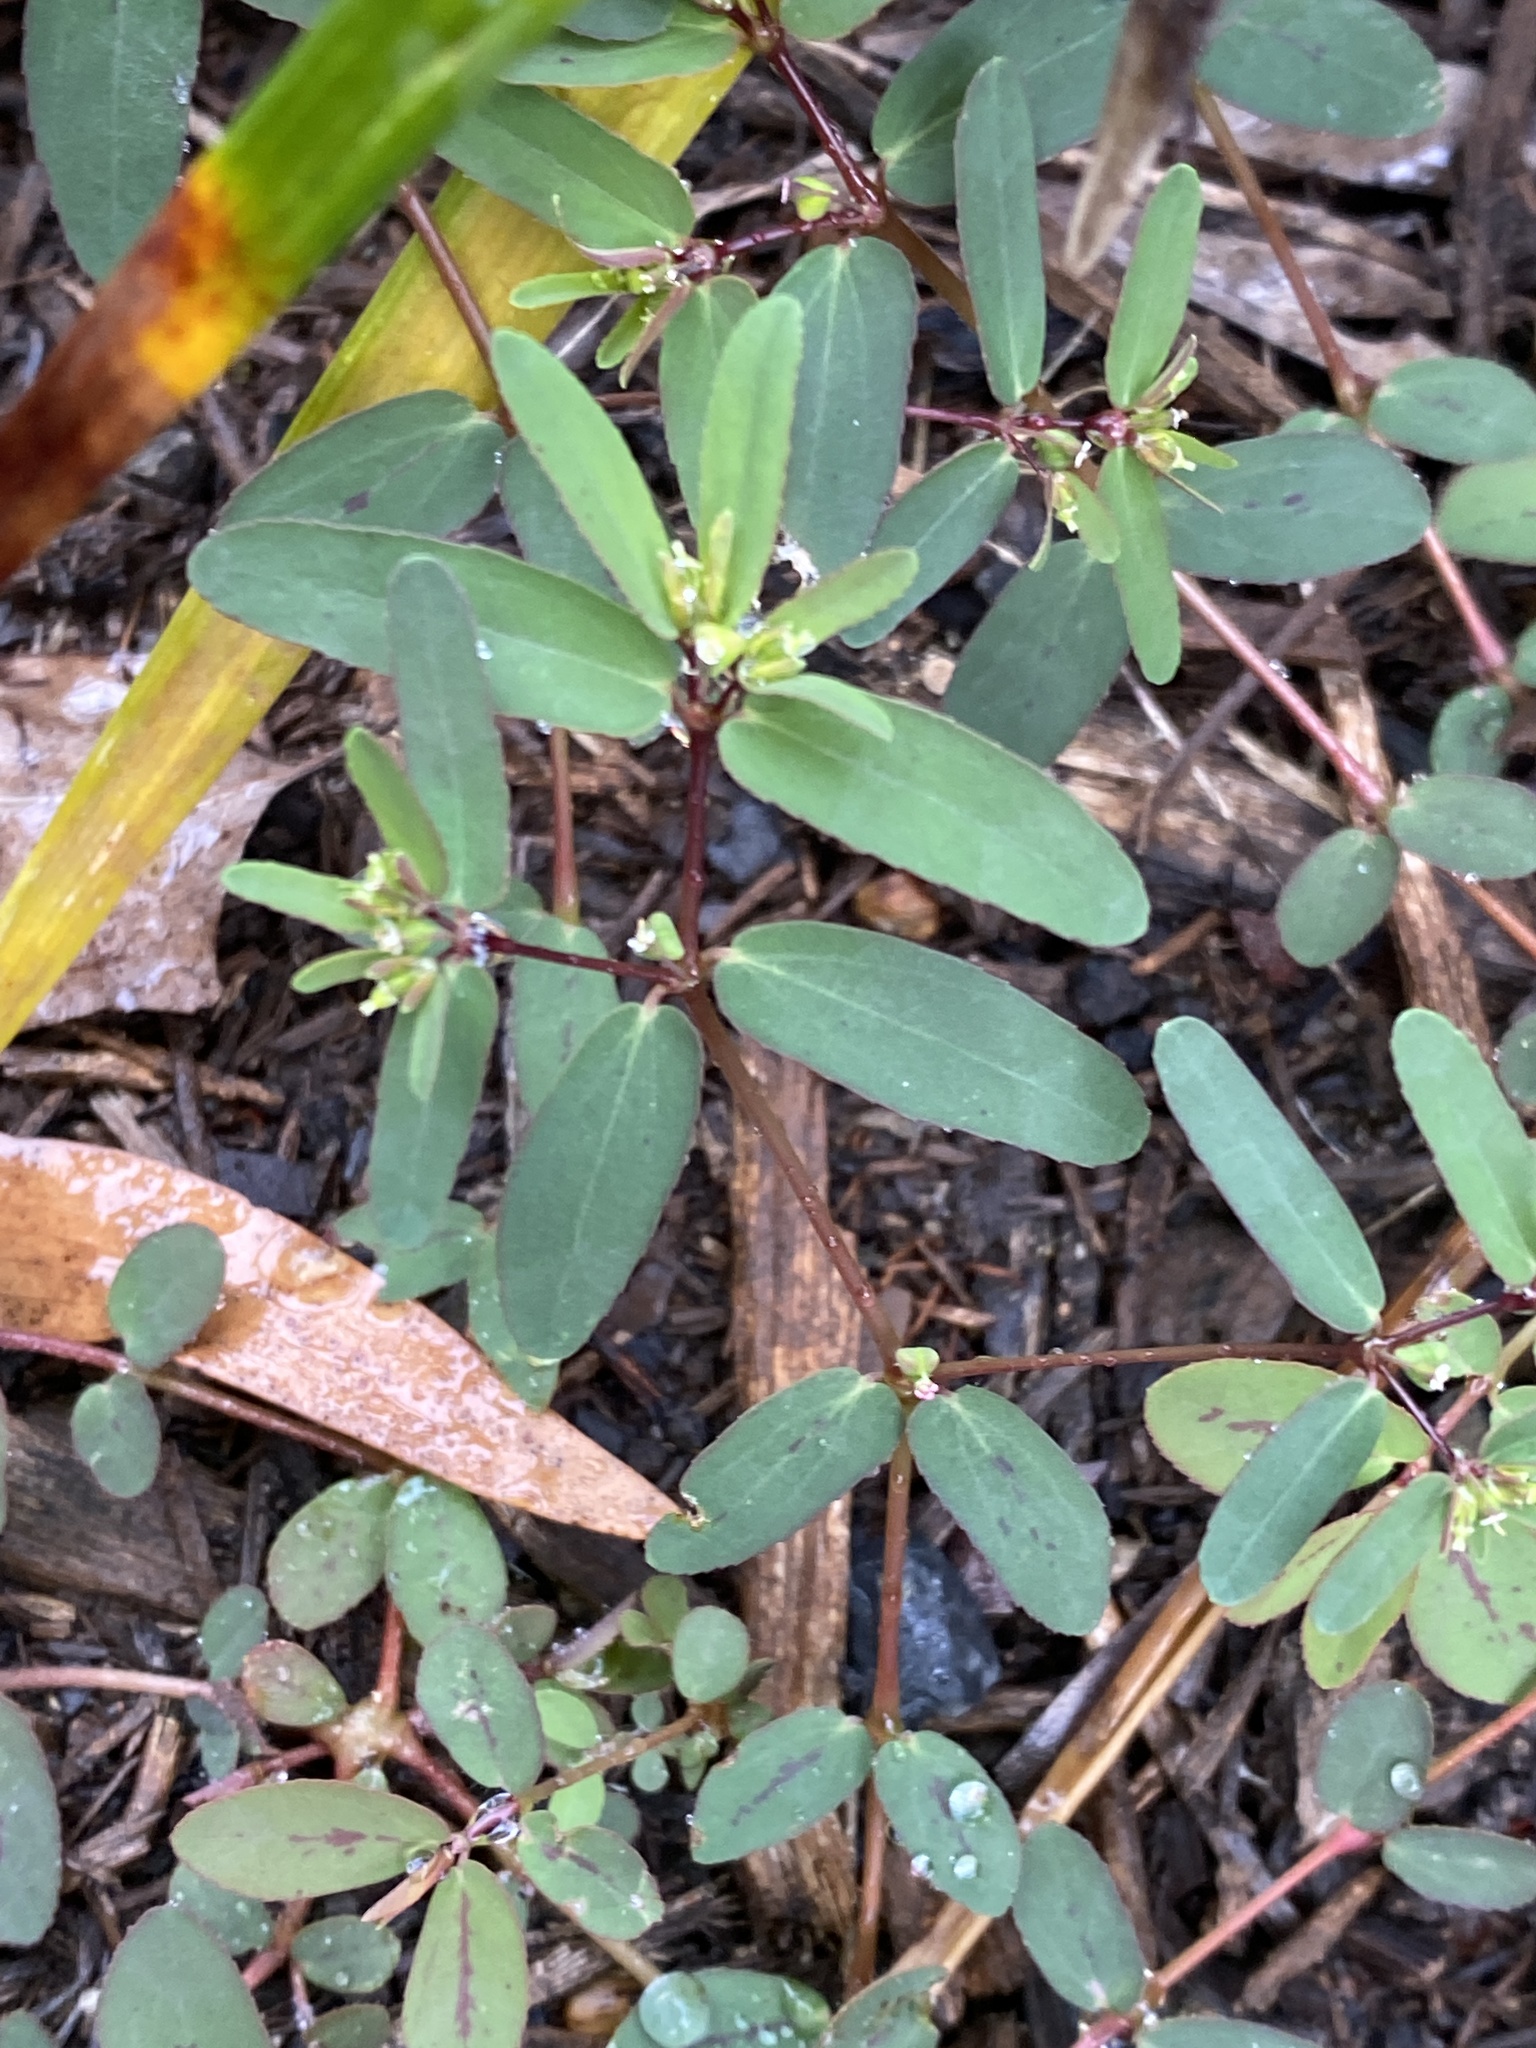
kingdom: Plantae
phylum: Tracheophyta
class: Magnoliopsida
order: Malpighiales
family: Euphorbiaceae
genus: Euphorbia
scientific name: Euphorbia hyssopifolia
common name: Hyssopleaf sandmat
